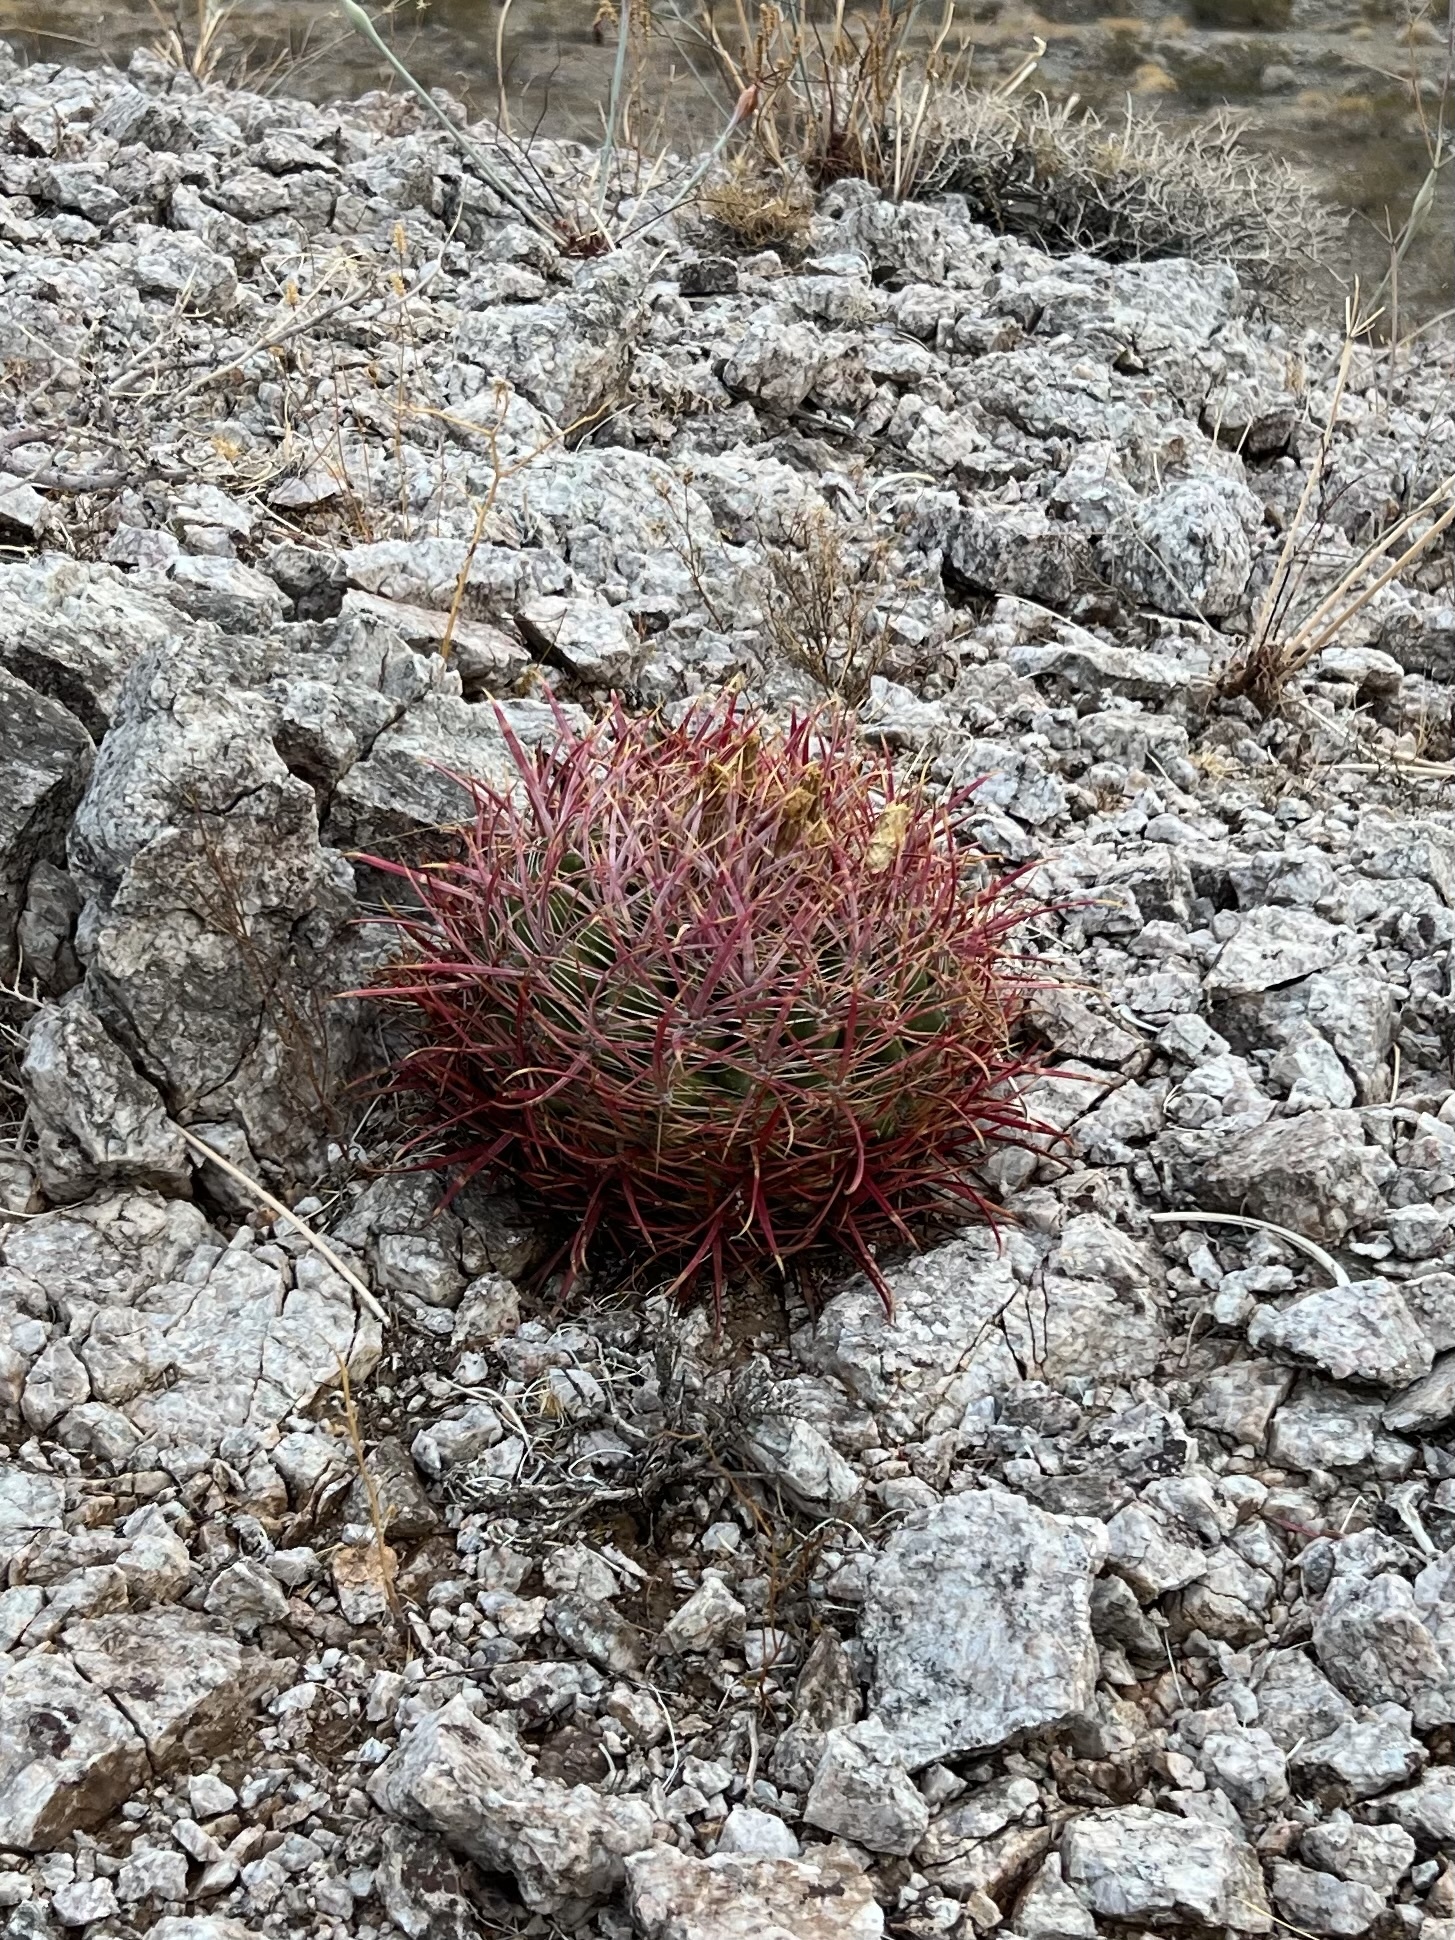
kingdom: Plantae
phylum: Tracheophyta
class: Magnoliopsida
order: Caryophyllales
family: Cactaceae
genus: Ferocactus
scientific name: Ferocactus cylindraceus
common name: California barrel cactus
